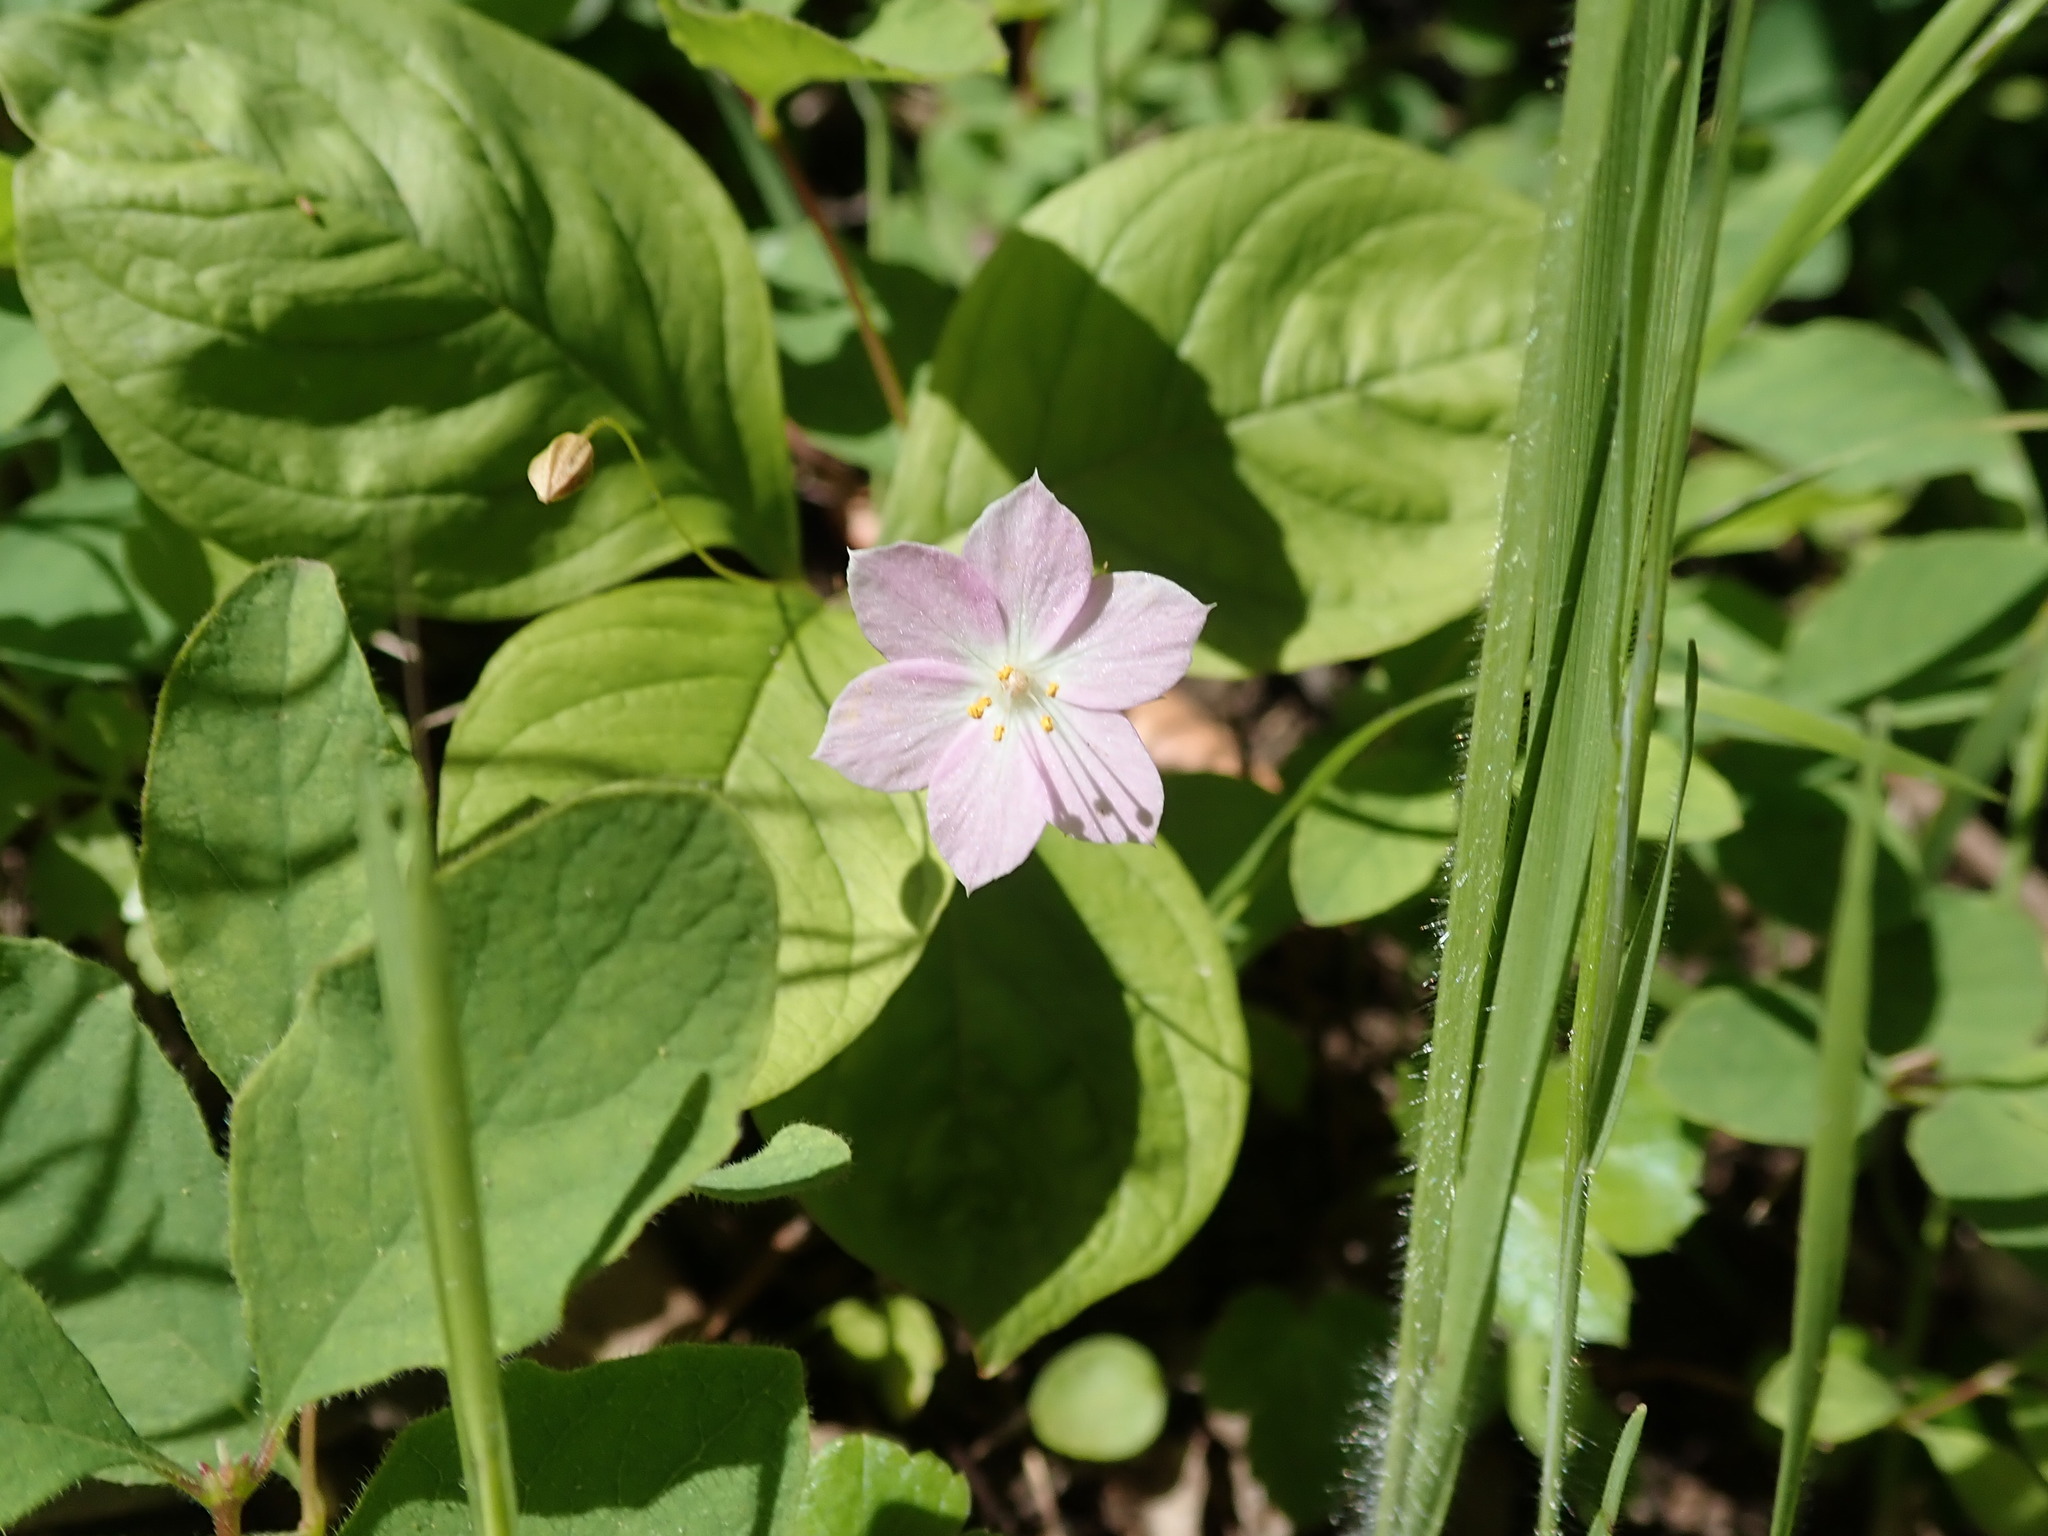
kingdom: Plantae
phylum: Tracheophyta
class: Magnoliopsida
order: Ericales
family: Primulaceae
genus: Lysimachia
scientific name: Lysimachia latifolia
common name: Pacific starflower
